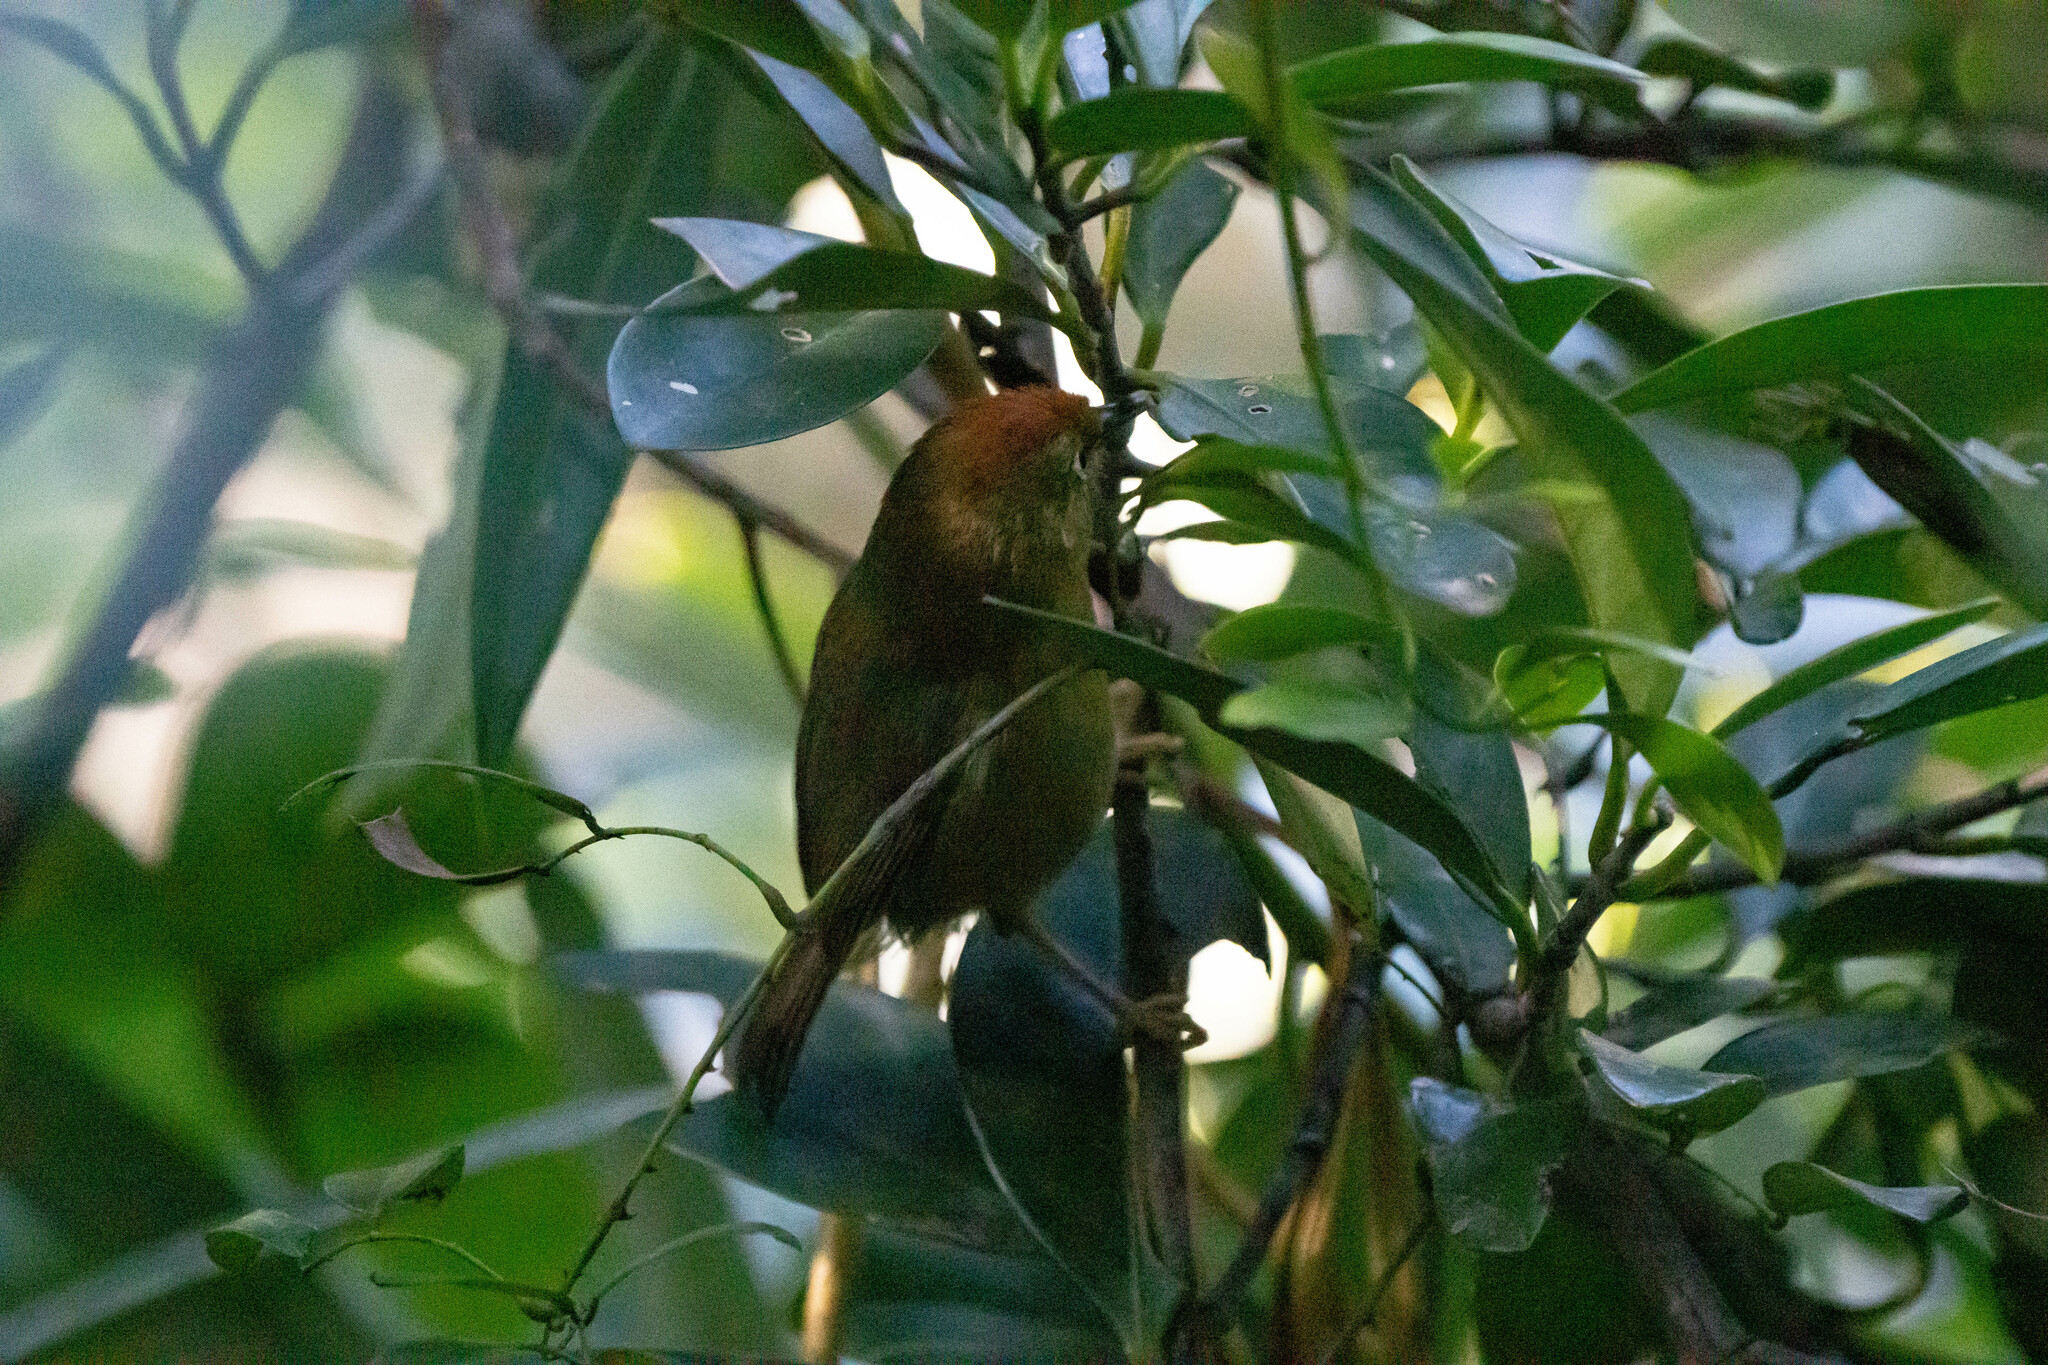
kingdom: Animalia
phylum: Chordata
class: Aves
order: Passeriformes
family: Timaliidae
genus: Stachyridopsis
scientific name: Stachyridopsis ruficeps
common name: Rufous-capped babbler
